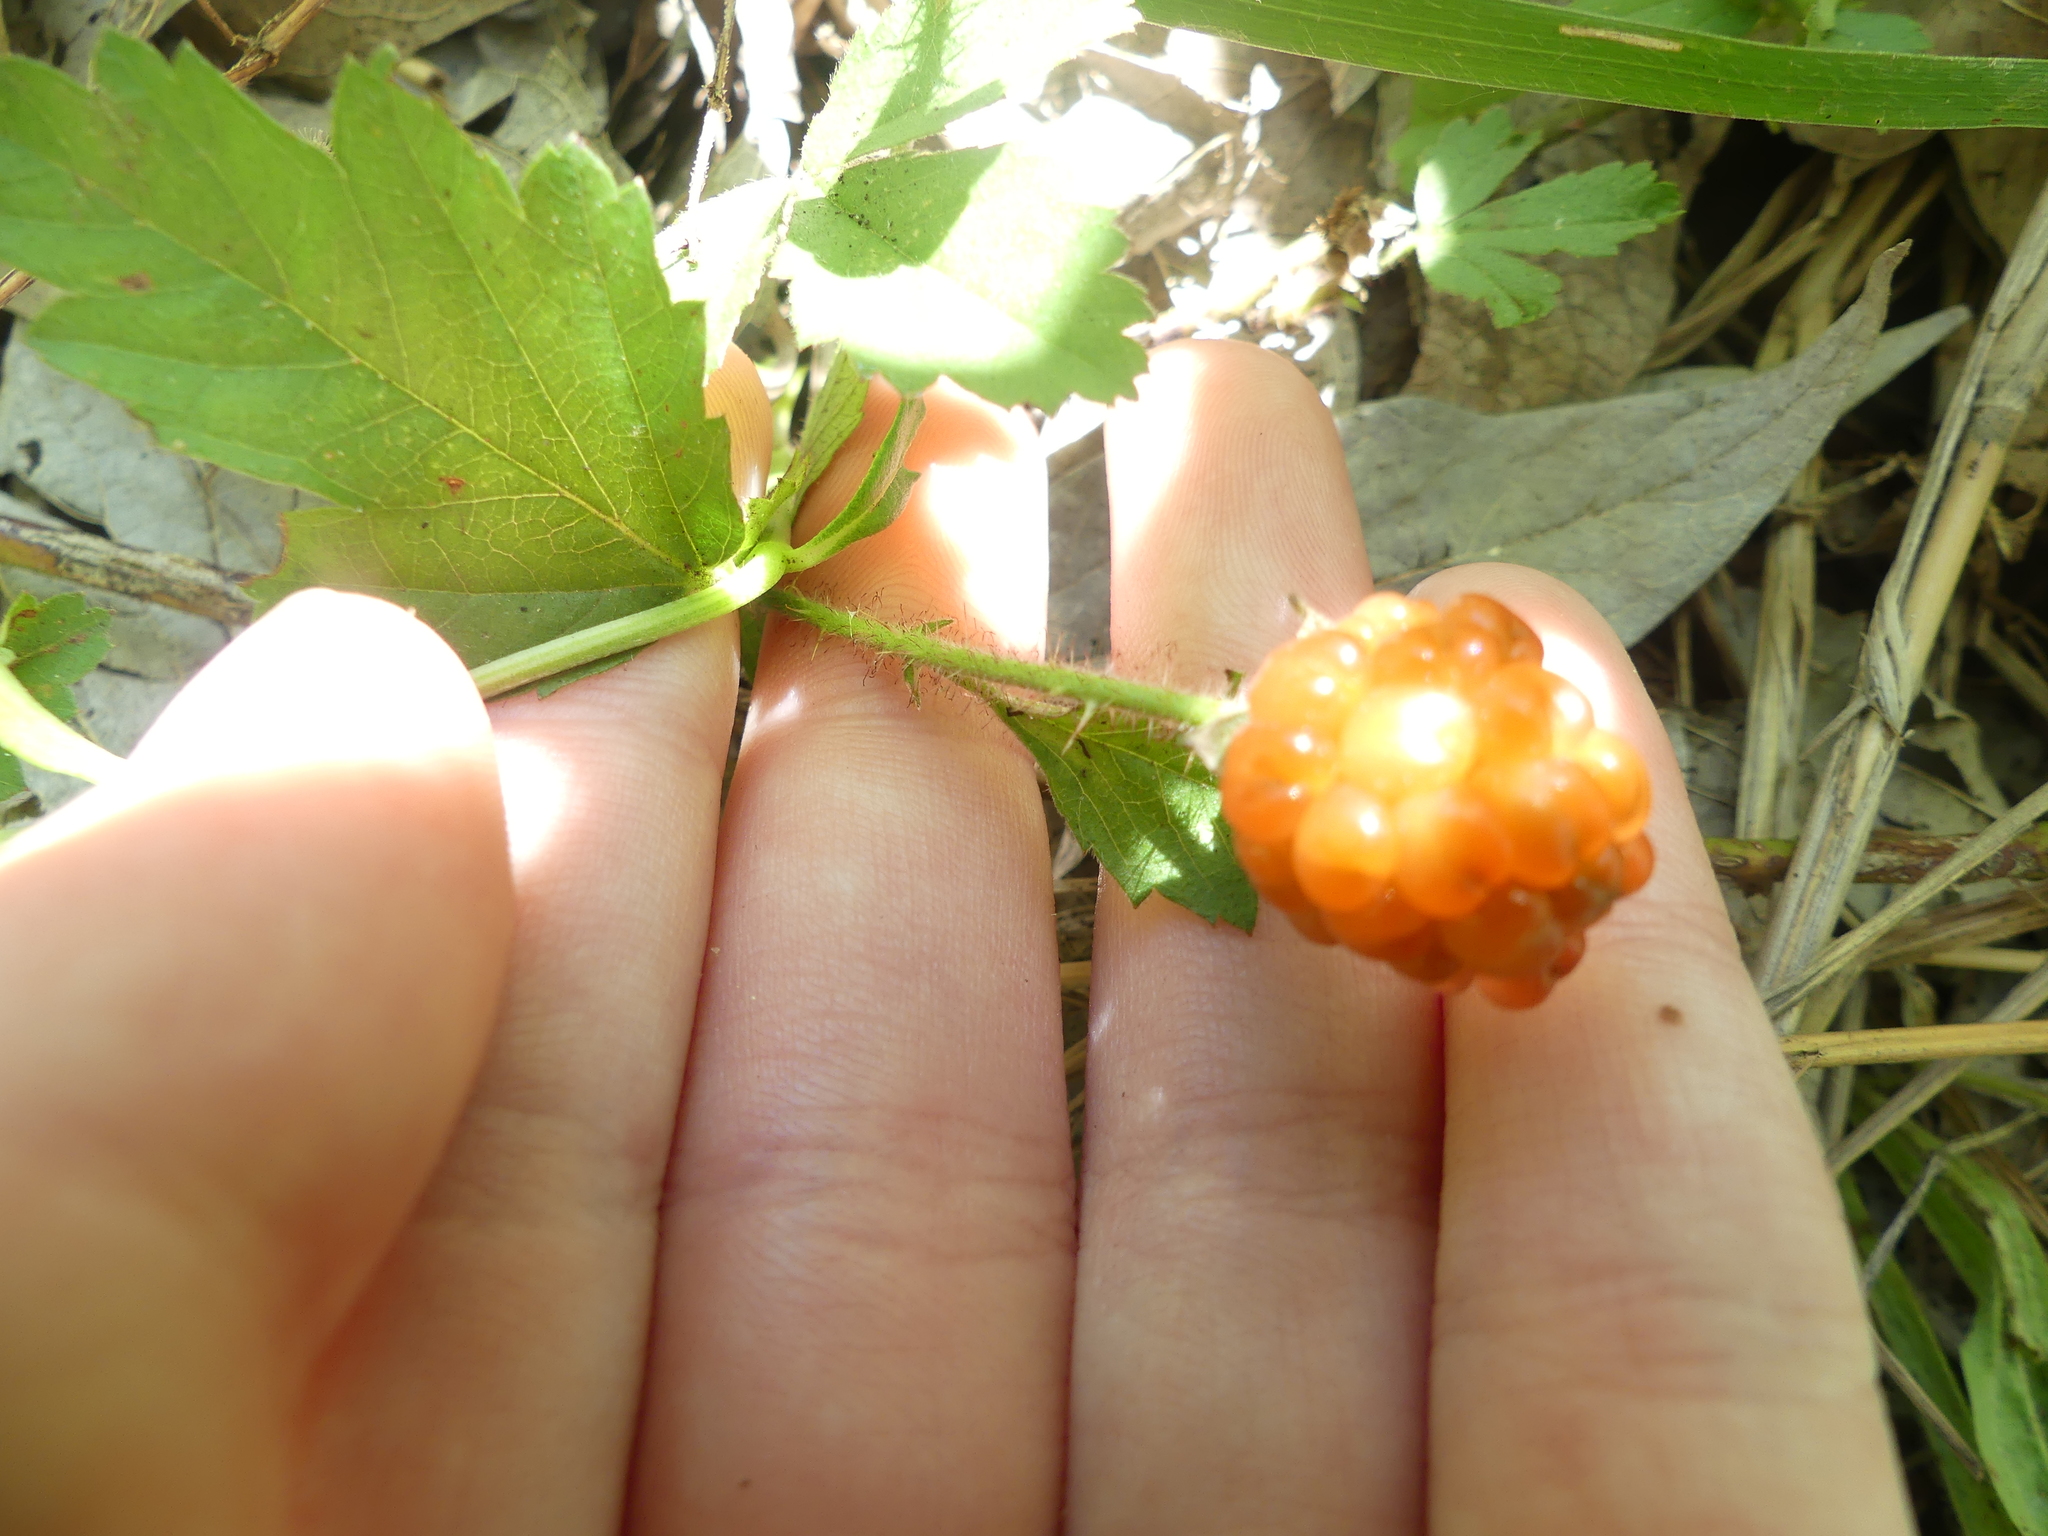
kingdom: Plantae
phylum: Tracheophyta
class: Magnoliopsida
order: Rosales
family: Rosaceae
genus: Rubus
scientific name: Rubus trivialis
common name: Southern dewberry
